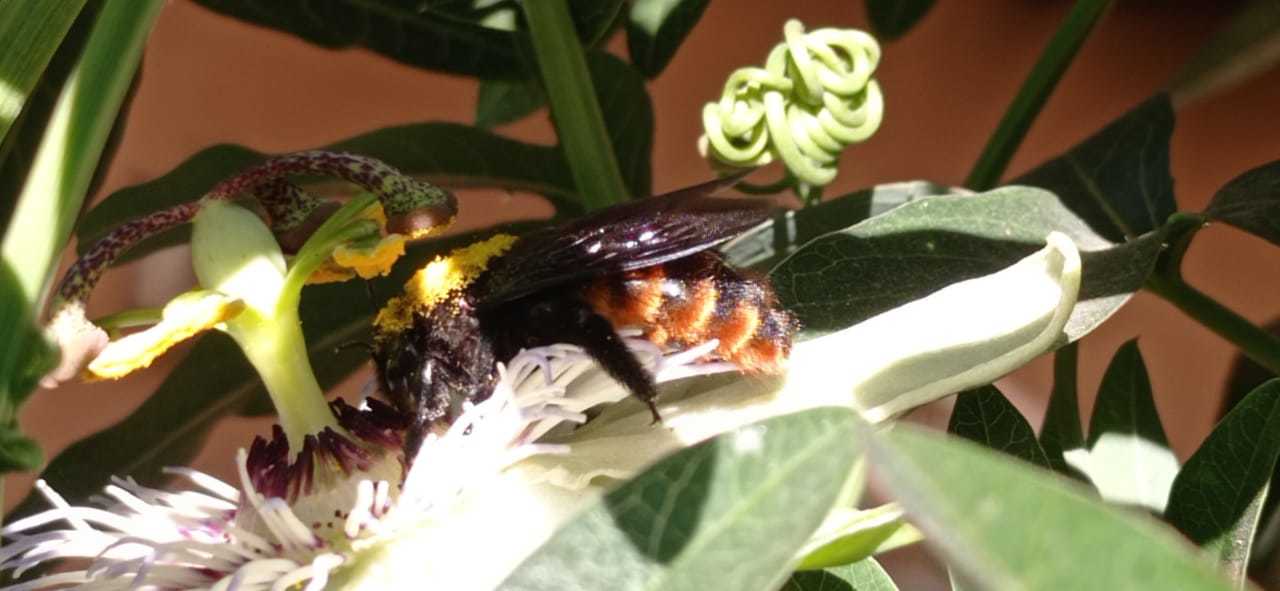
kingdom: Animalia
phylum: Arthropoda
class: Insecta
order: Hymenoptera
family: Apidae
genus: Xylocopa
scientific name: Xylocopa augusti
